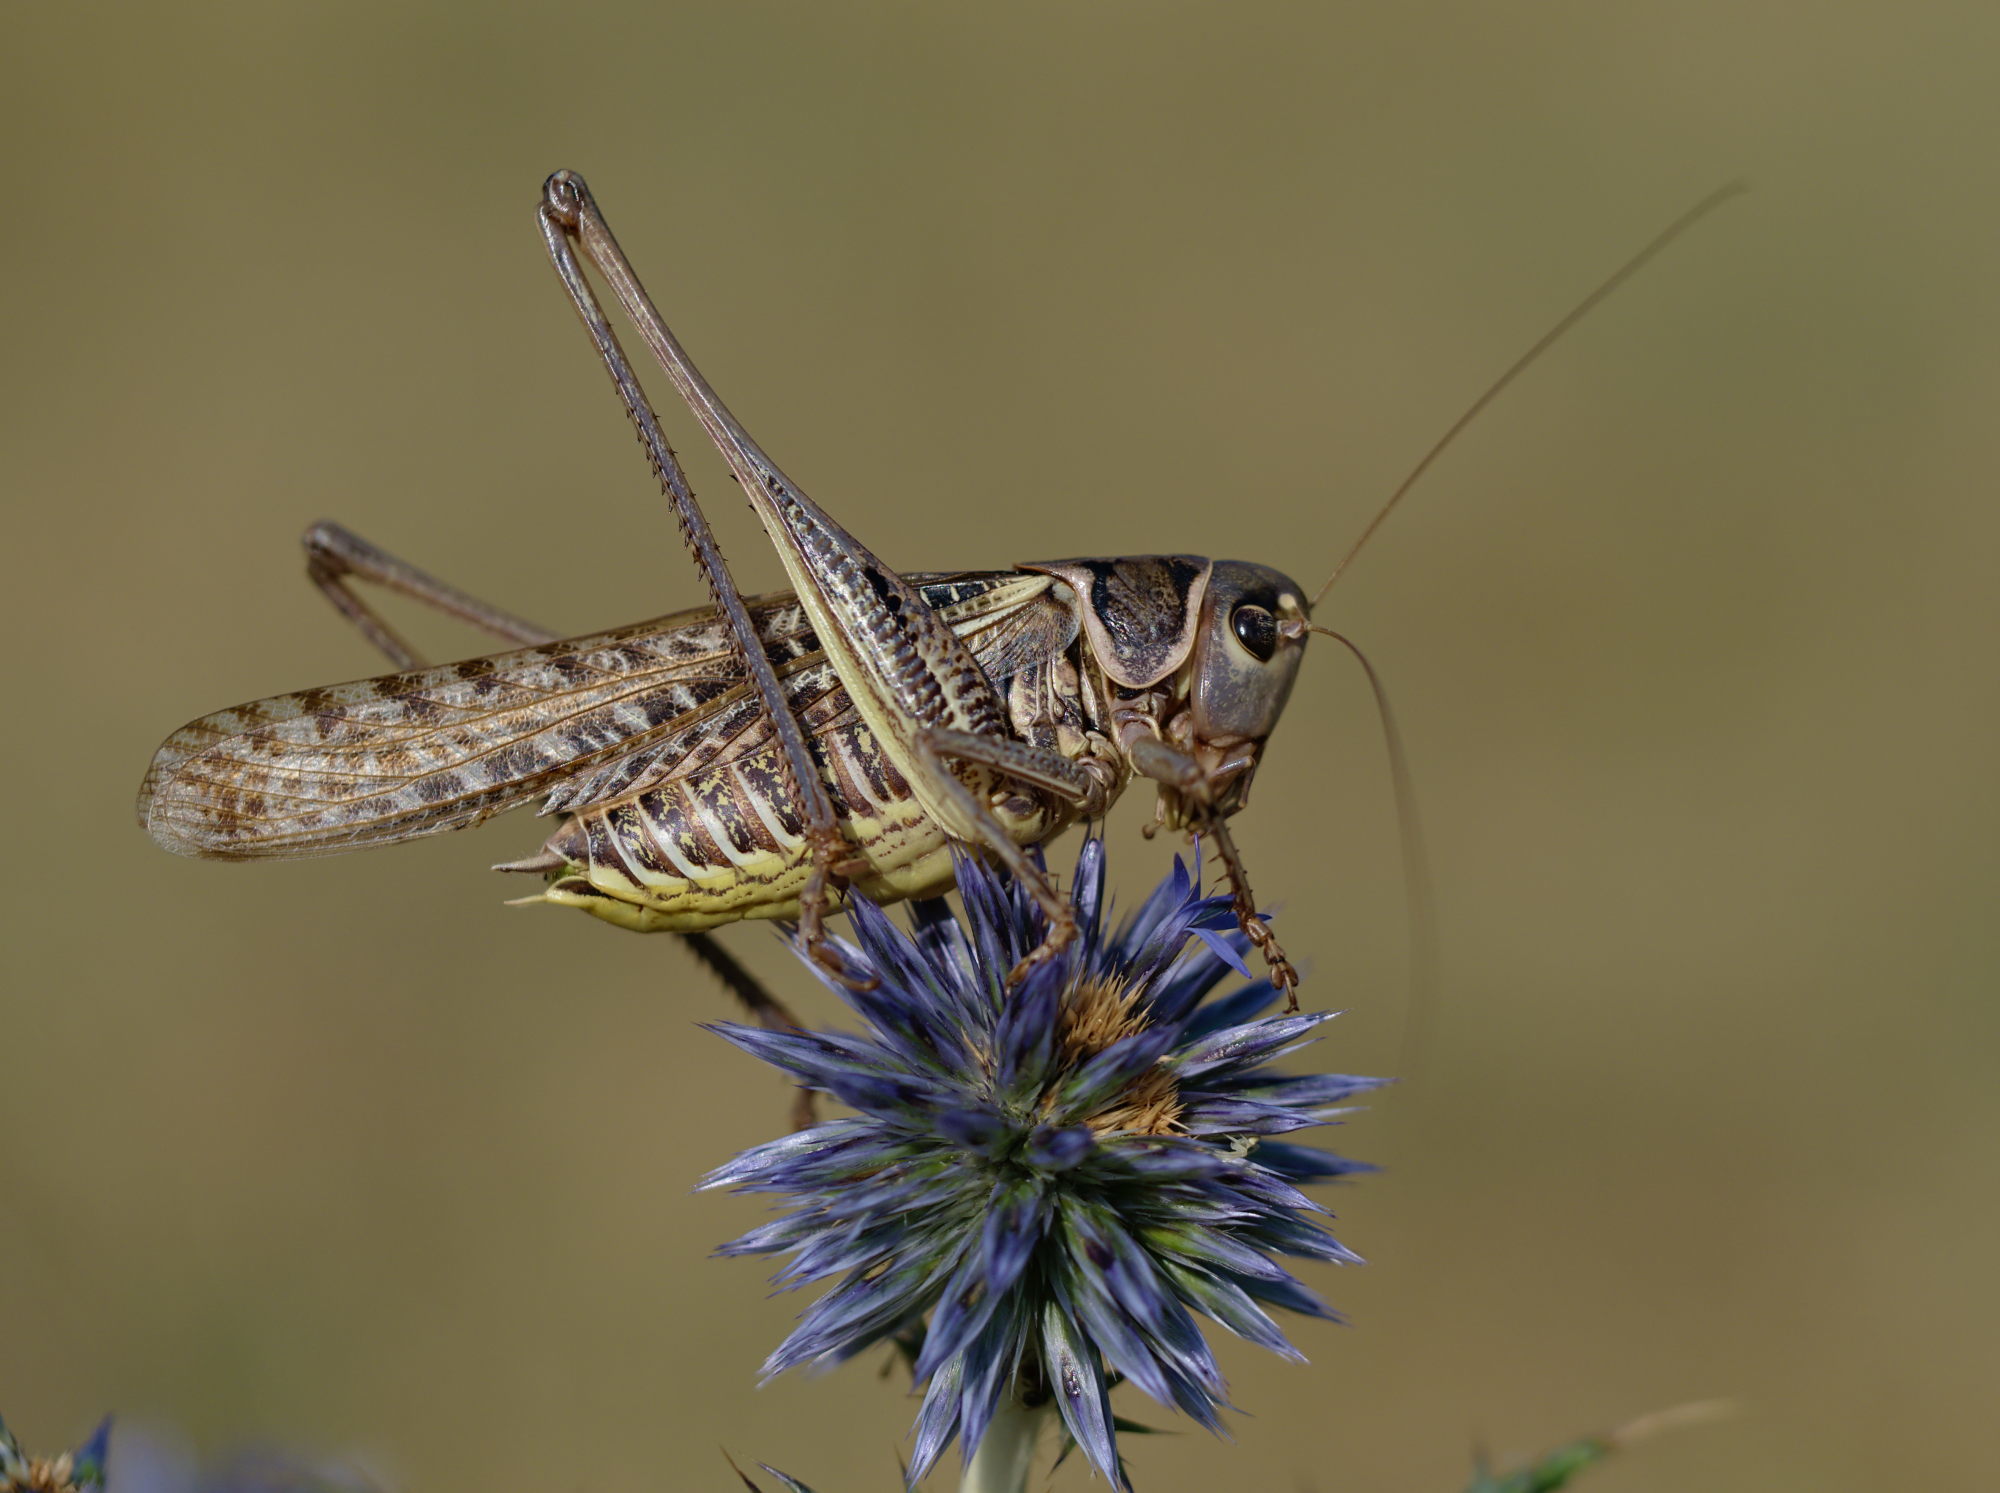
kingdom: Animalia
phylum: Arthropoda
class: Insecta
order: Orthoptera
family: Tettigoniidae
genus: Decticus
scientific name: Decticus albifrons
